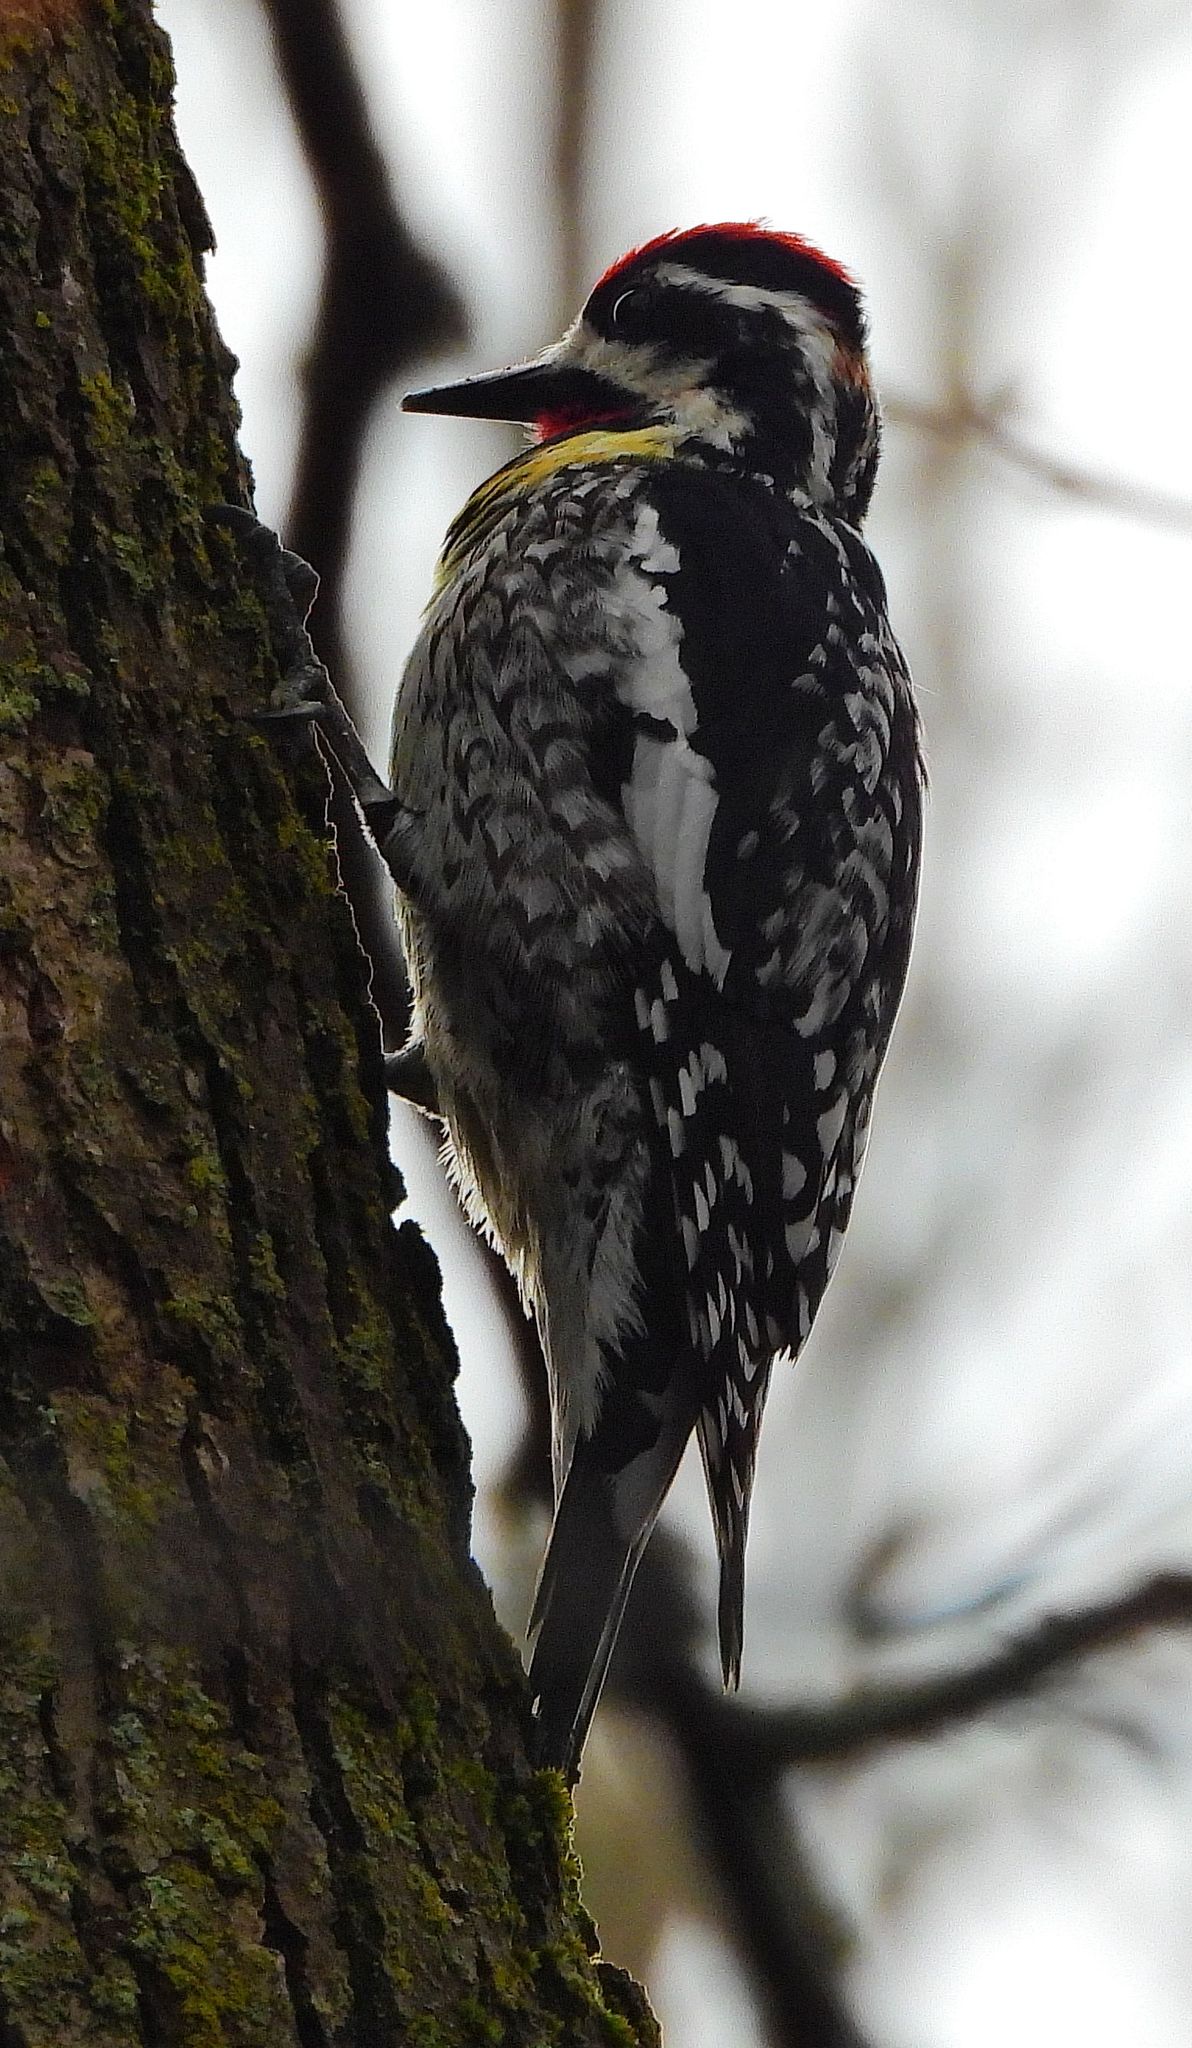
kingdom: Animalia
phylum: Chordata
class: Aves
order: Piciformes
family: Picidae
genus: Sphyrapicus
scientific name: Sphyrapicus varius
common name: Yellow-bellied sapsucker
